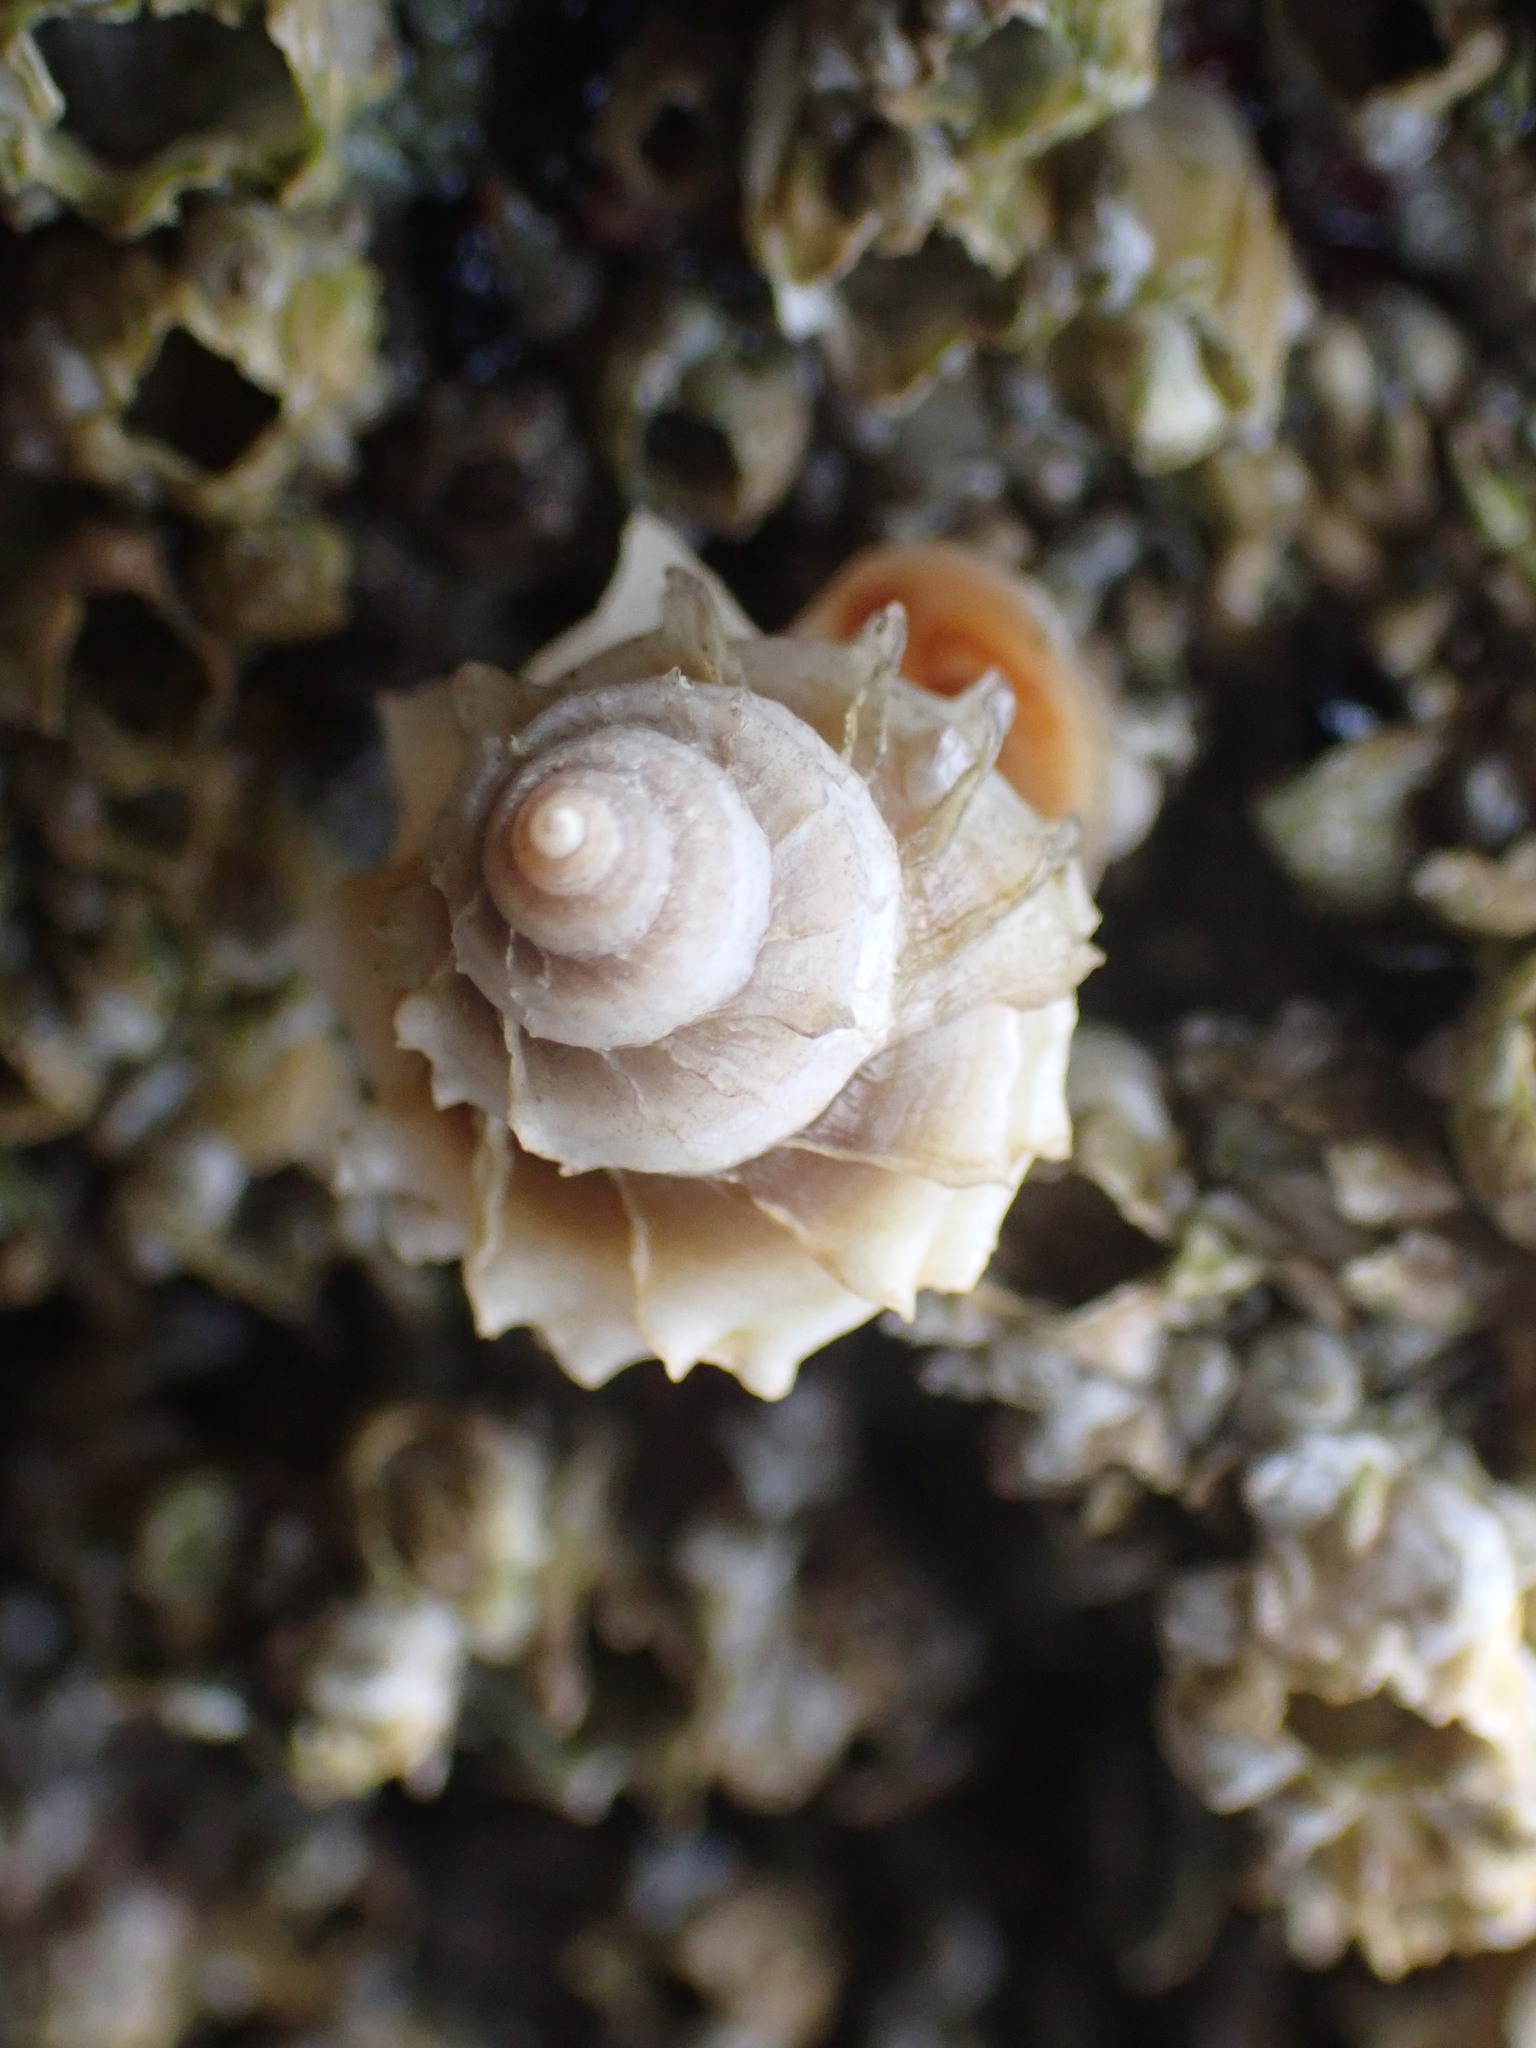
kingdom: Animalia
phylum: Mollusca
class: Gastropoda
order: Neogastropoda
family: Muricidae
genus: Nucella
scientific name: Nucella lamellosa
